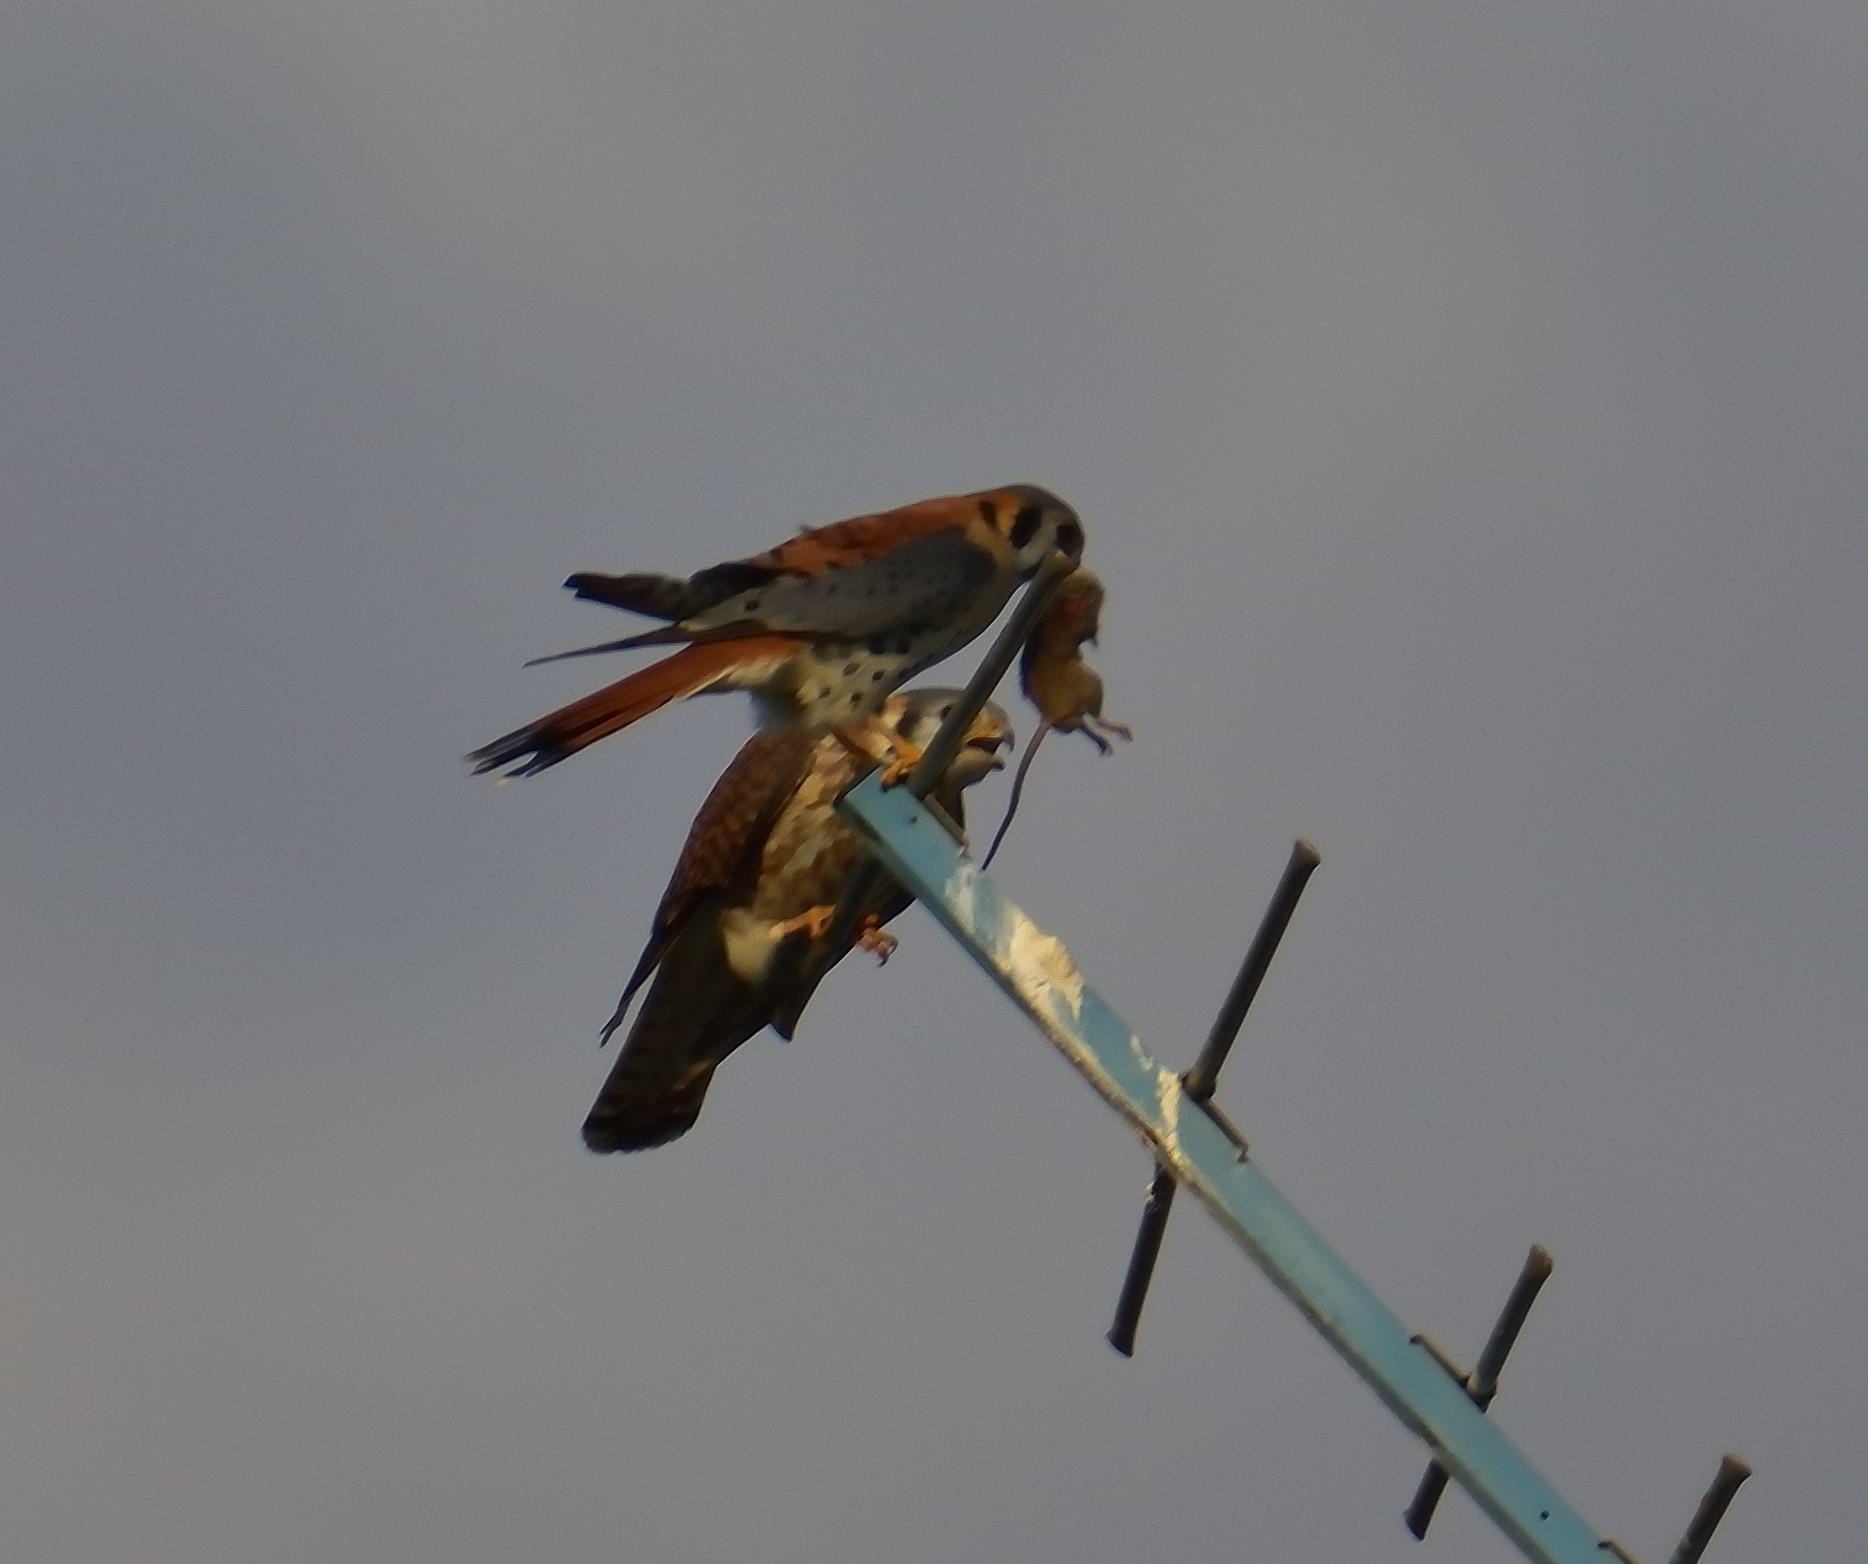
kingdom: Animalia
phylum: Chordata
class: Aves
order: Falconiformes
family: Falconidae
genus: Falco
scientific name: Falco sparverius
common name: American kestrel
